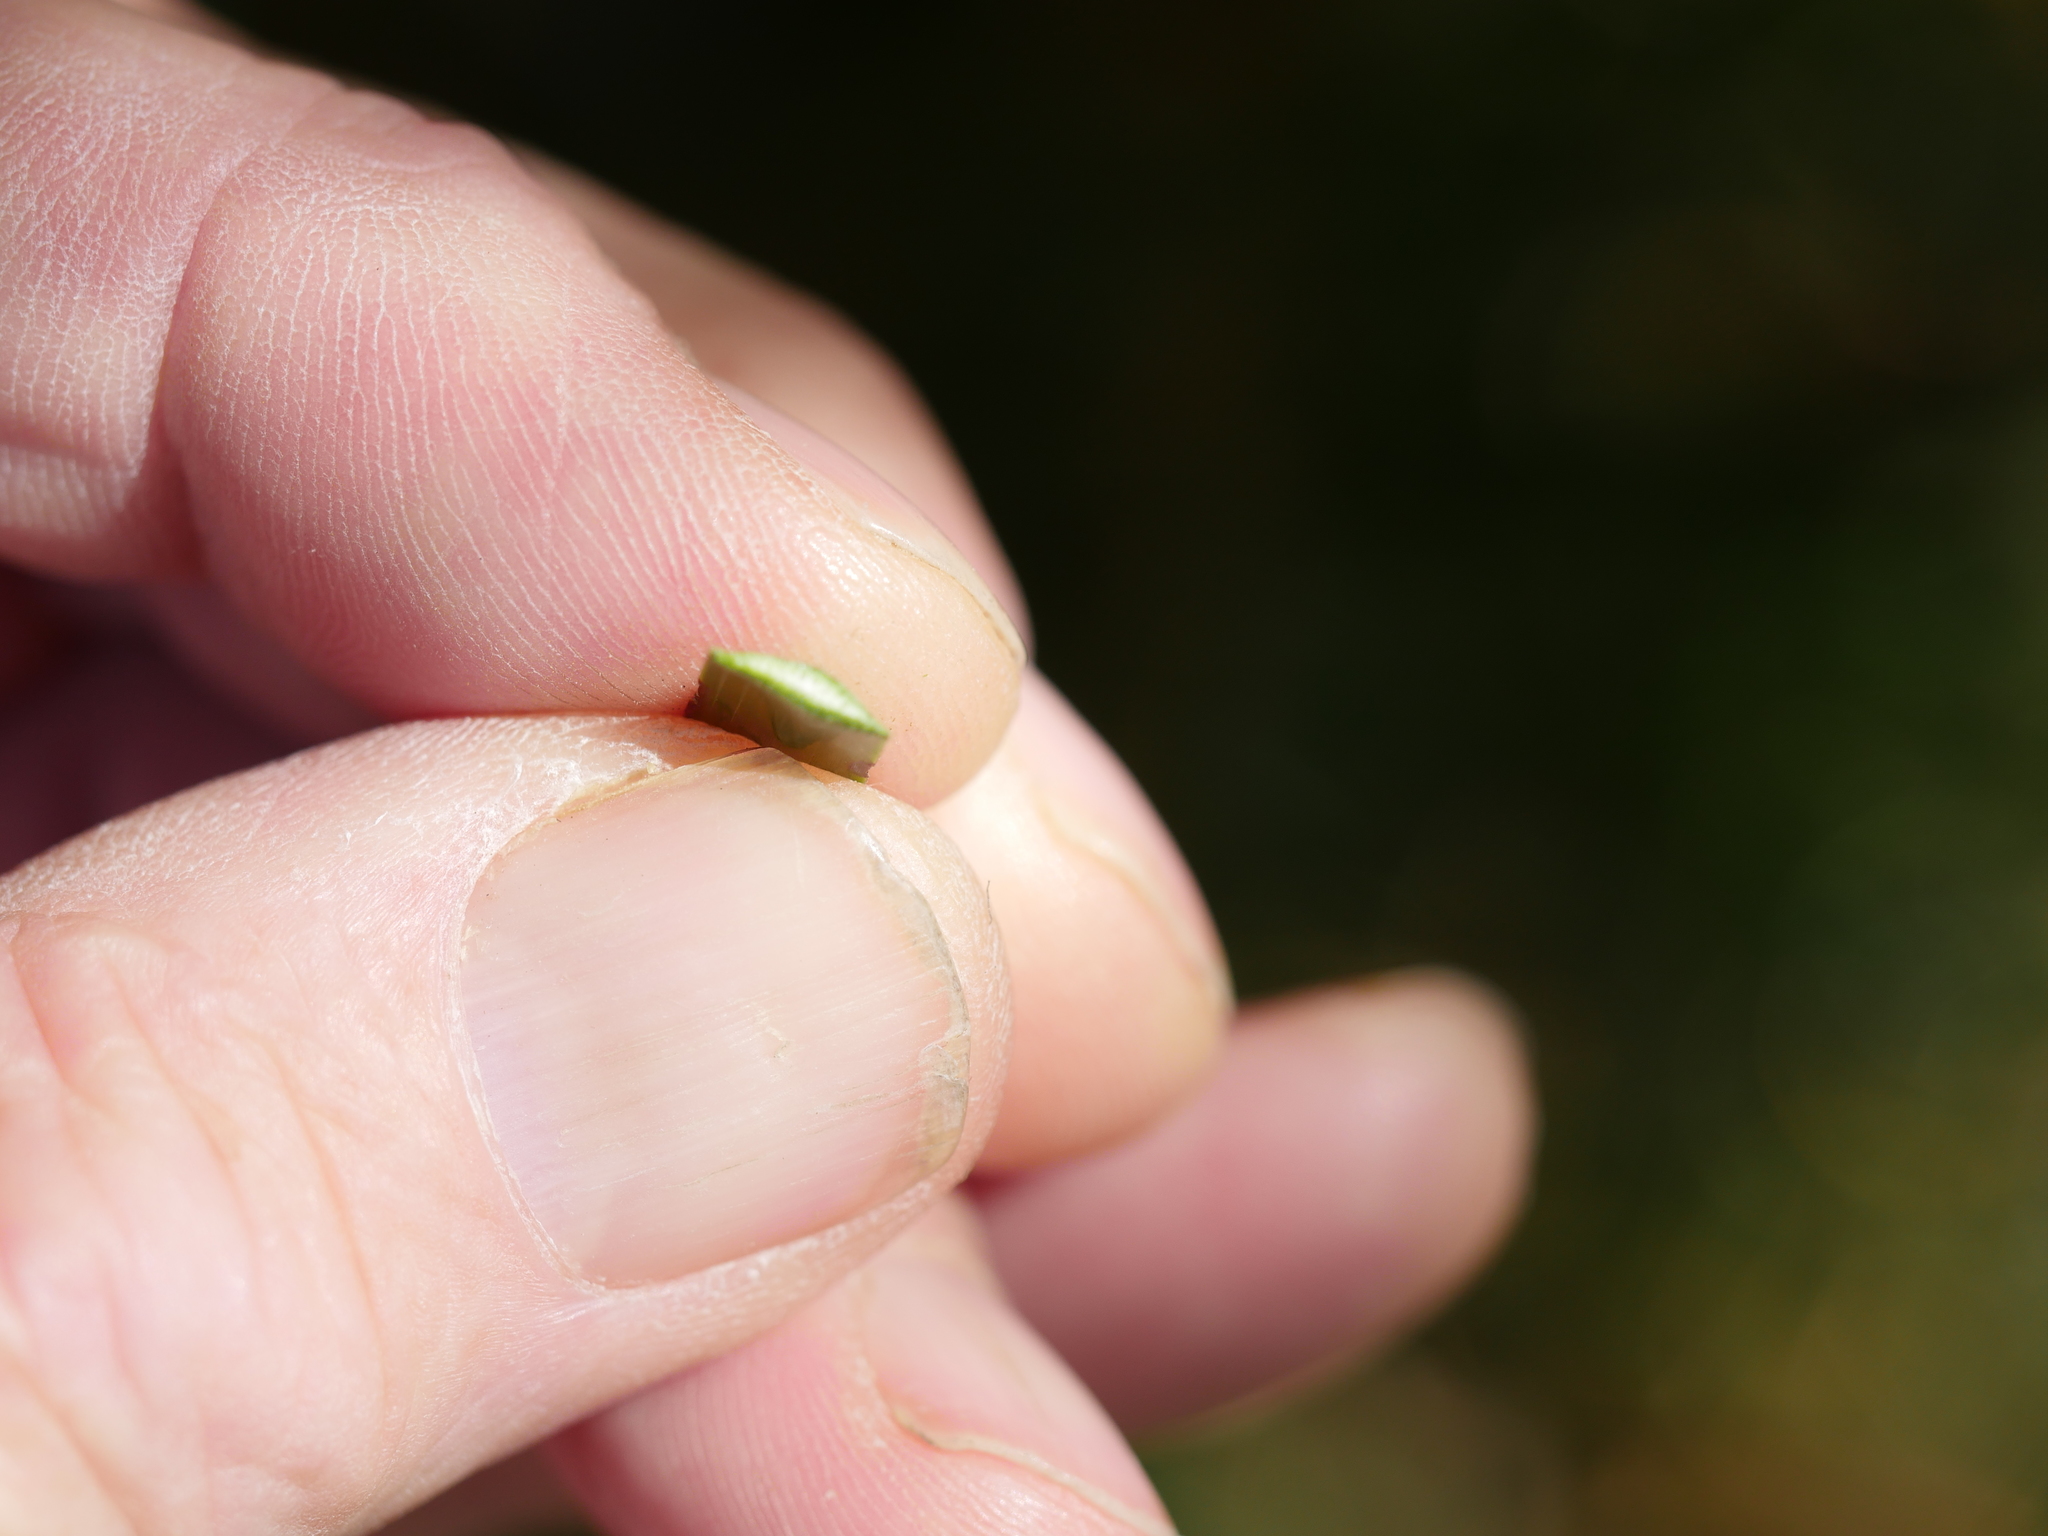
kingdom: Plantae
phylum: Tracheophyta
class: Liliopsida
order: Poales
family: Cyperaceae
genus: Lepidosperma
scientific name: Lepidosperma laterale
